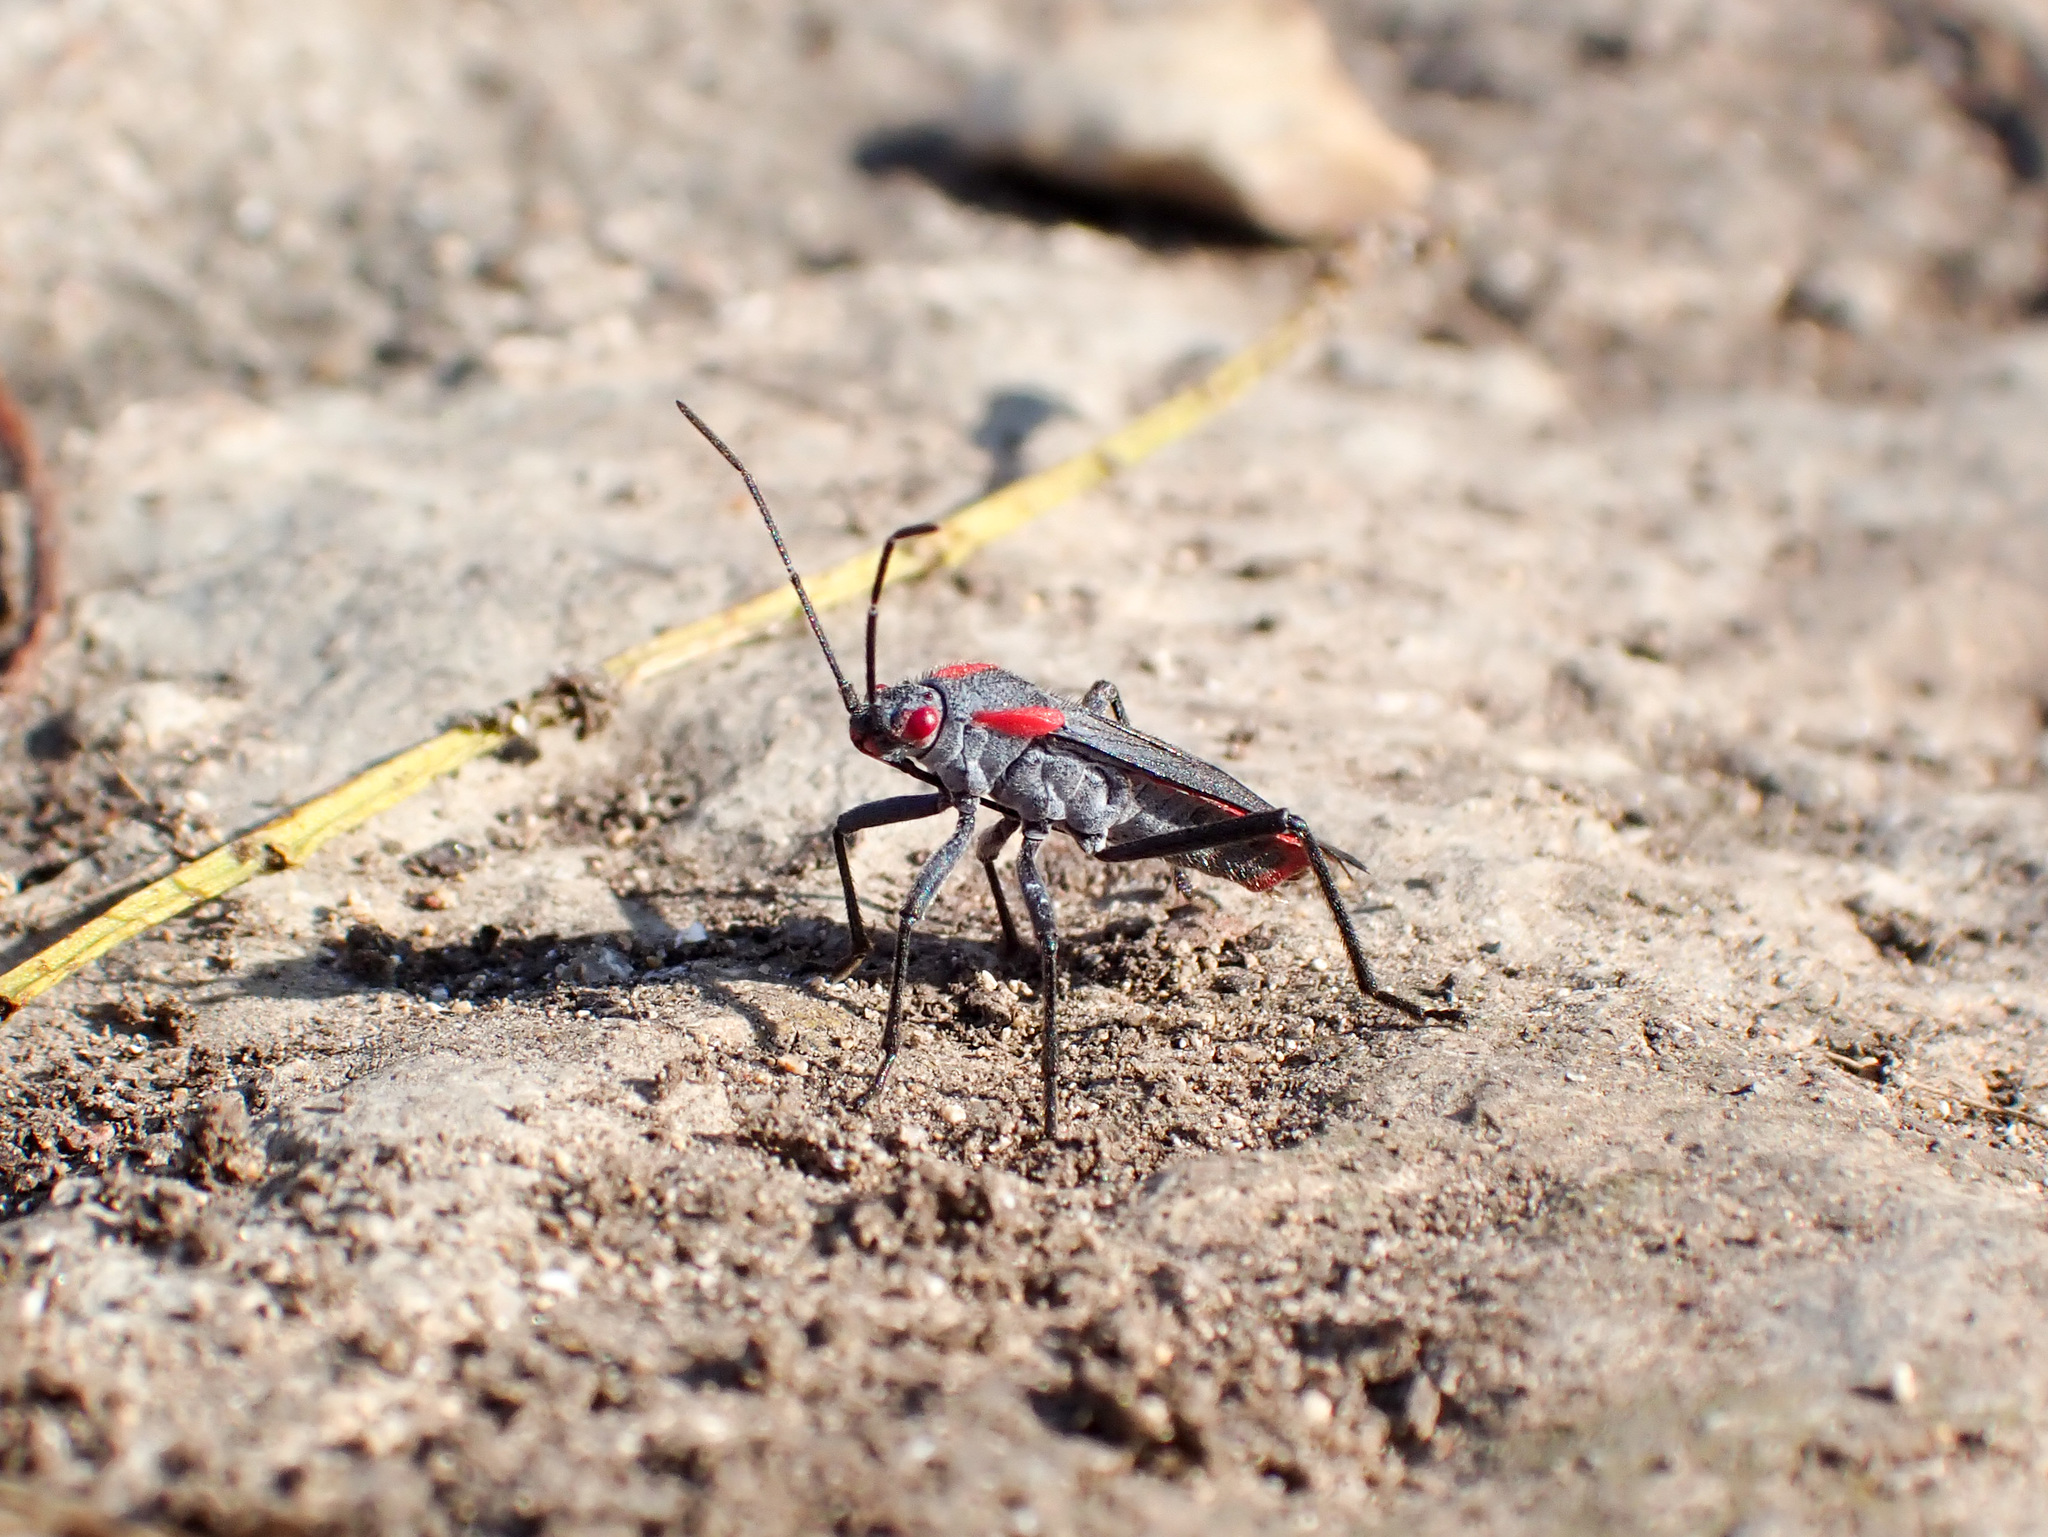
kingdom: Animalia
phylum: Arthropoda
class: Insecta
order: Hemiptera
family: Rhopalidae
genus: Jadera
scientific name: Jadera haematoloma
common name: Red-shouldered bug
